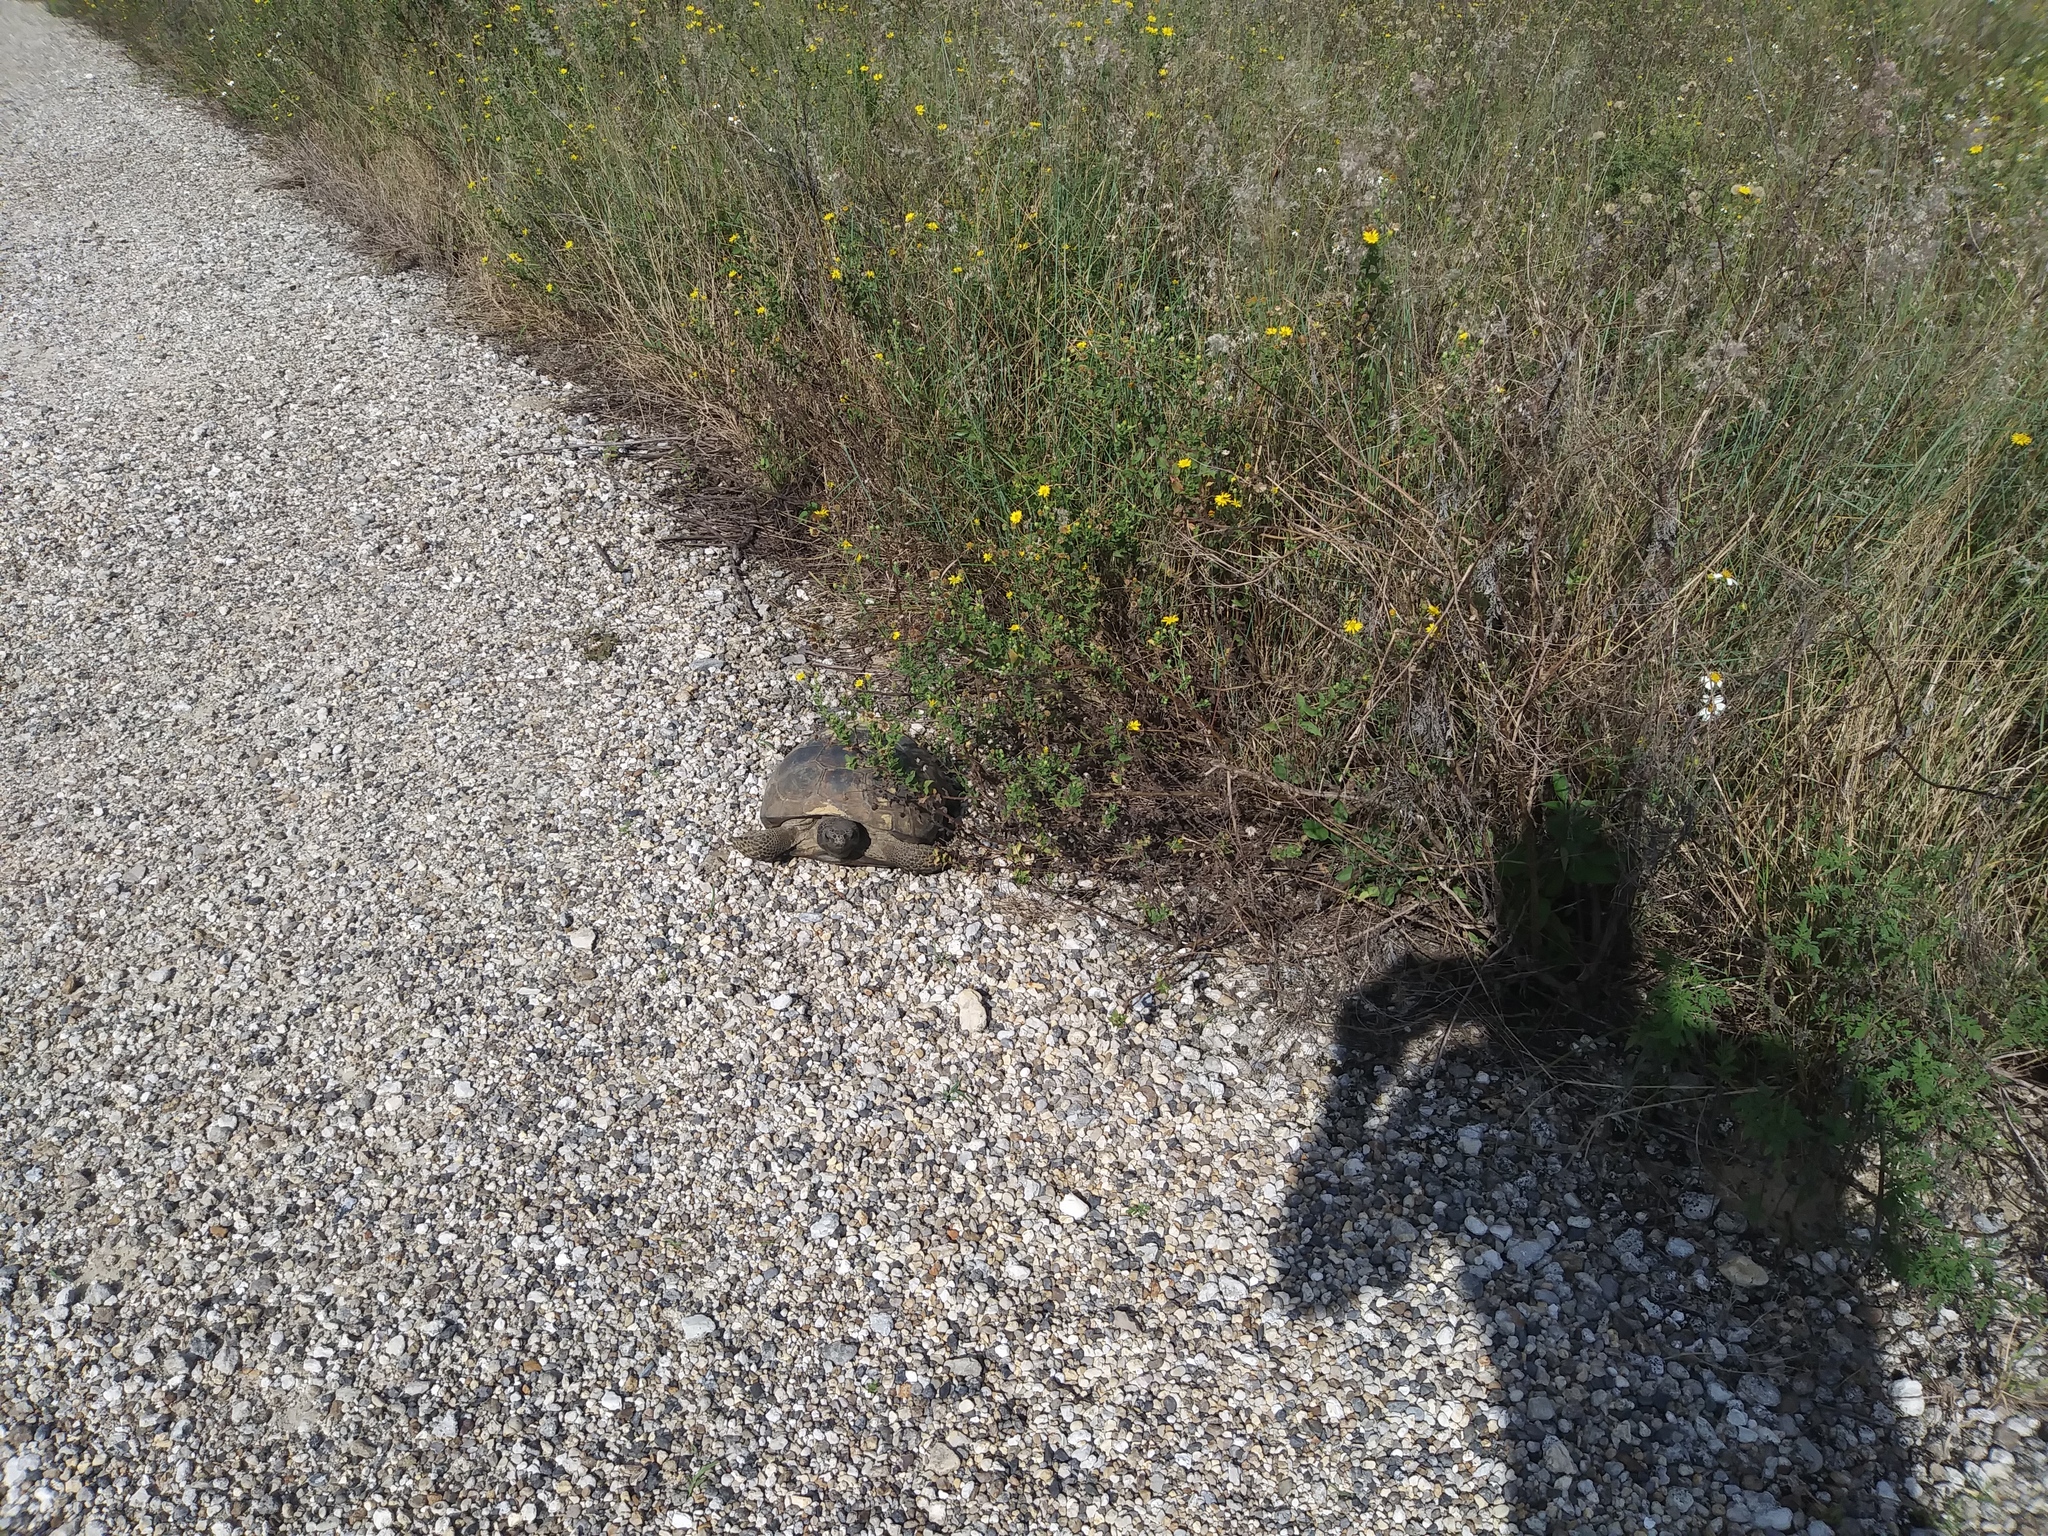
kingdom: Animalia
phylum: Chordata
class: Testudines
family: Testudinidae
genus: Gopherus
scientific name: Gopherus polyphemus
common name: Florida gopher tortoise
